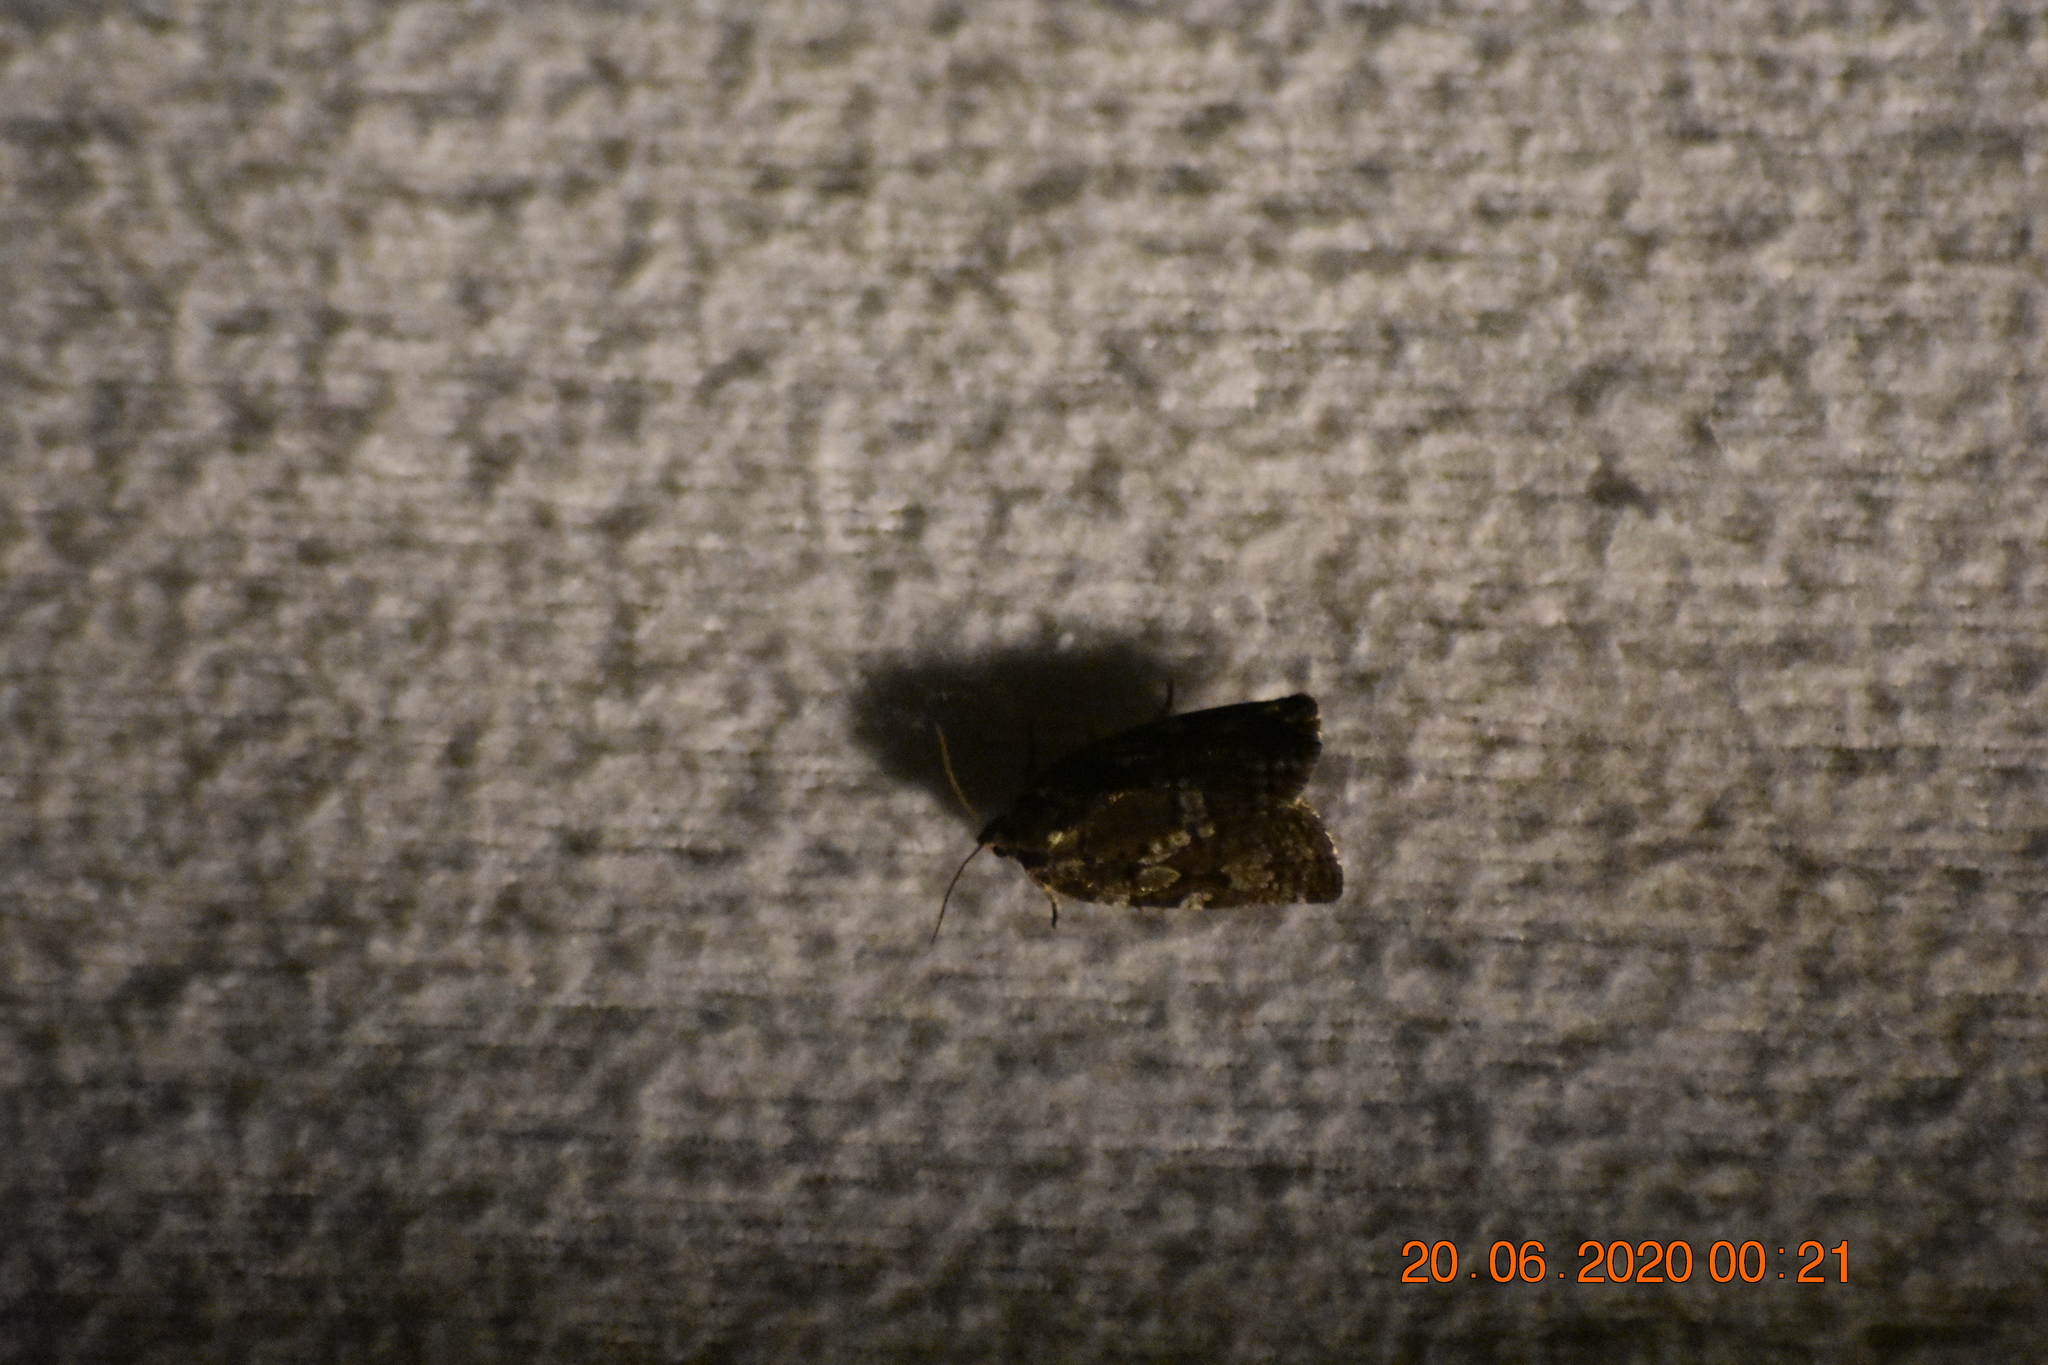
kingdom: Animalia
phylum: Arthropoda
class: Insecta
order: Lepidoptera
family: Tortricidae
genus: Choristoneura
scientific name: Choristoneura fumiferana
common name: Spruce budworm
